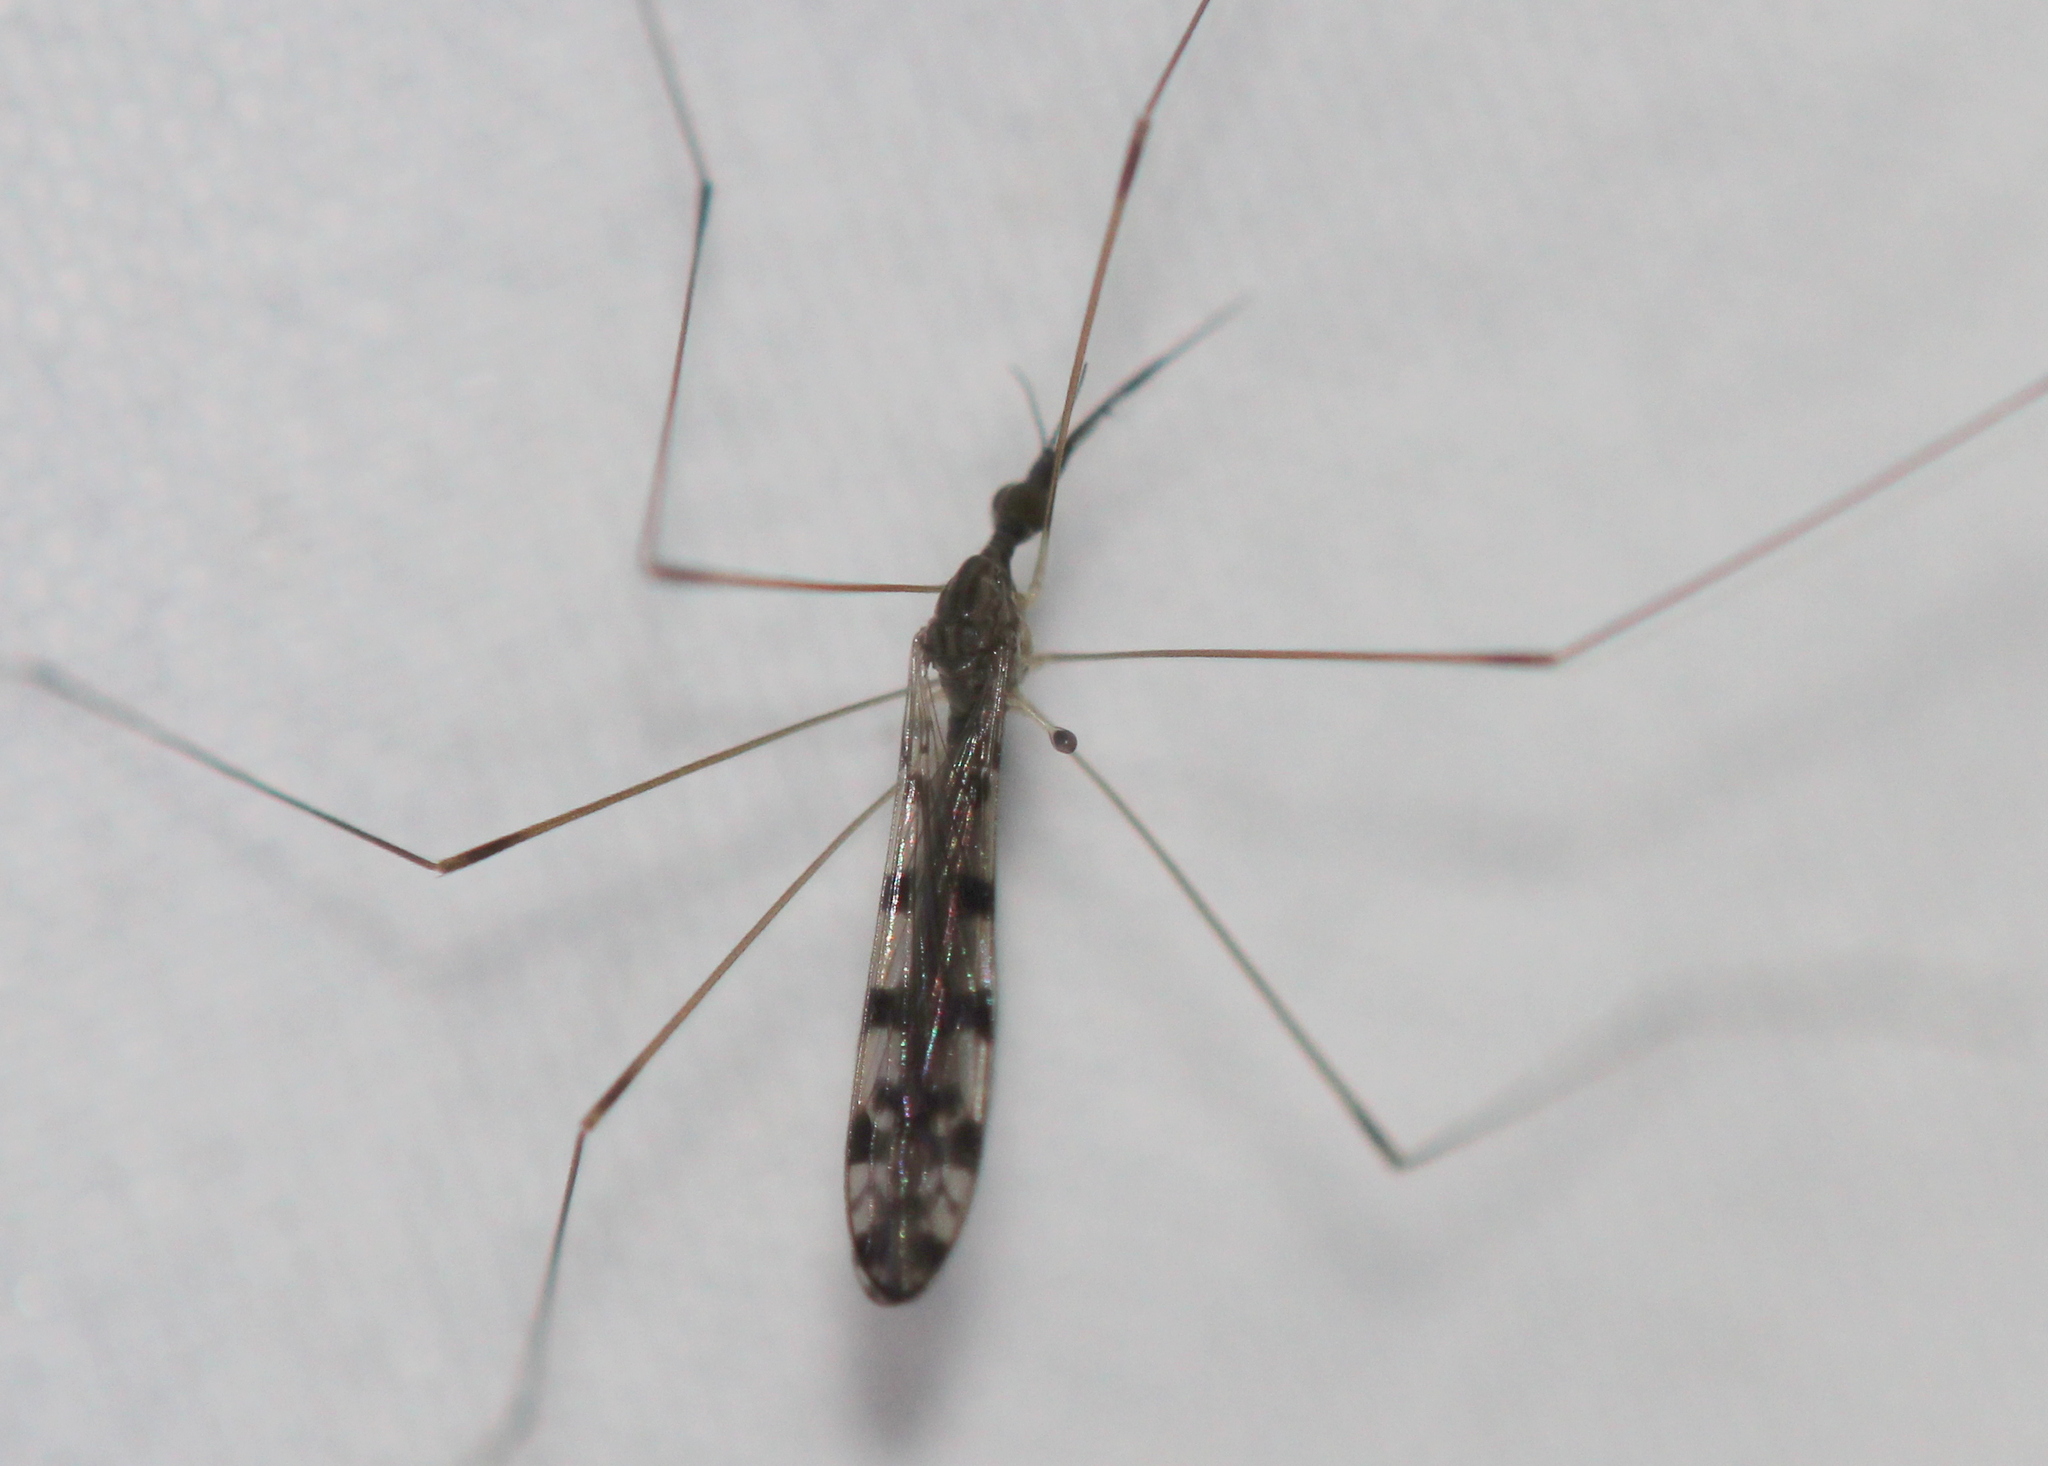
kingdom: Animalia
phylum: Arthropoda
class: Insecta
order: Diptera
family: Limoniidae
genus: Geranomyia
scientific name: Geranomyia rostrata
